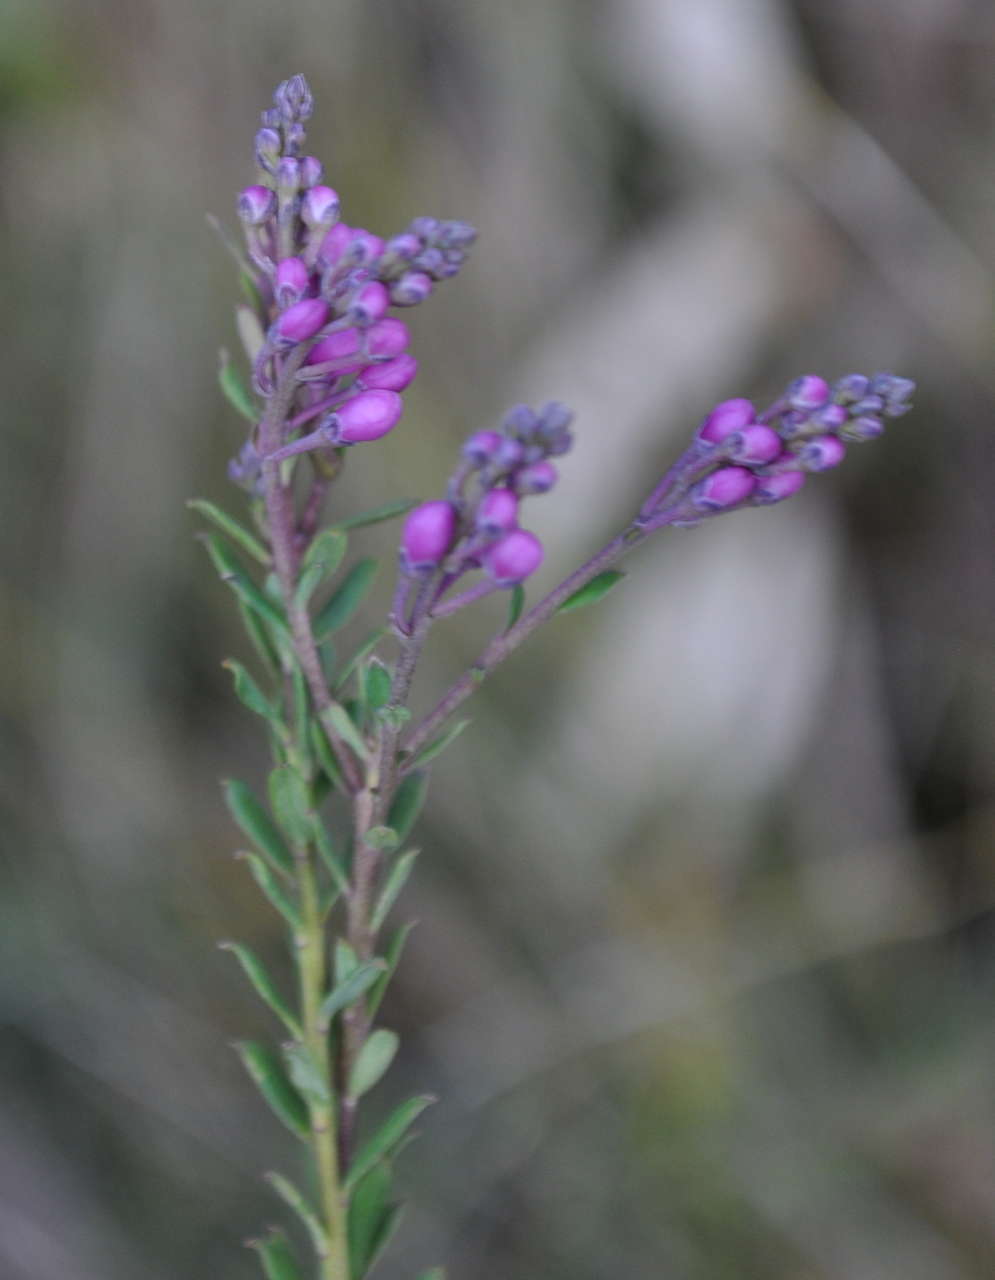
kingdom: Plantae
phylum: Tracheophyta
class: Magnoliopsida
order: Fabales
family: Polygalaceae
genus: Comesperma
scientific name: Comesperma ericinum
